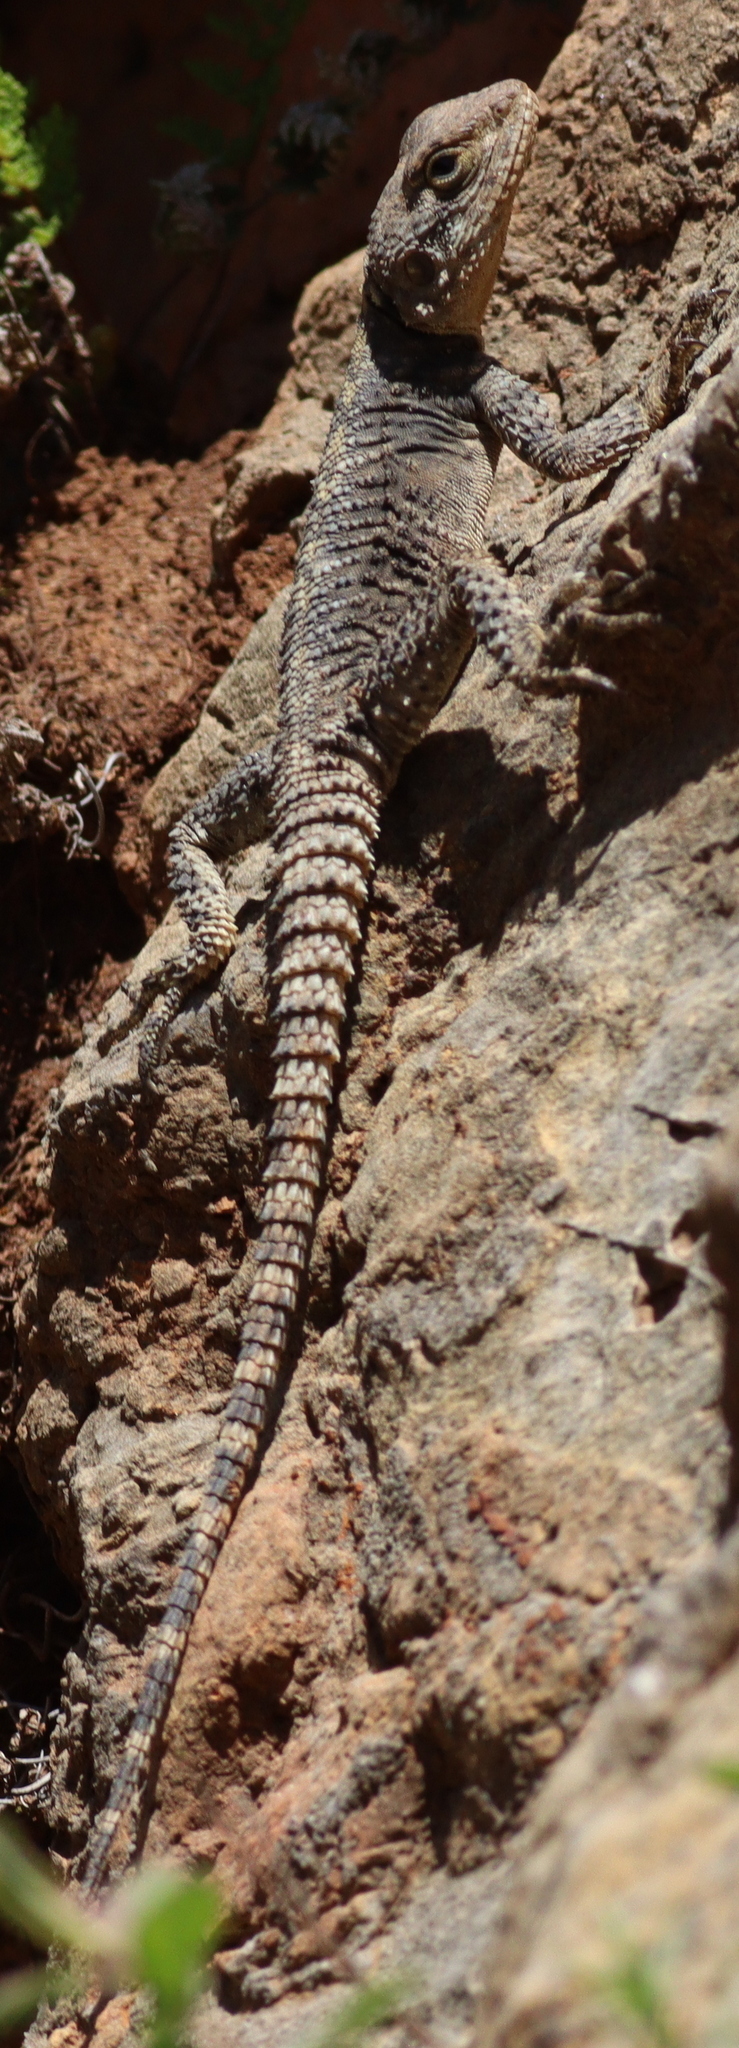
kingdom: Animalia
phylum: Chordata
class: Squamata
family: Agamidae
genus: Stellagama
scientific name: Stellagama stellio
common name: Starred agama
